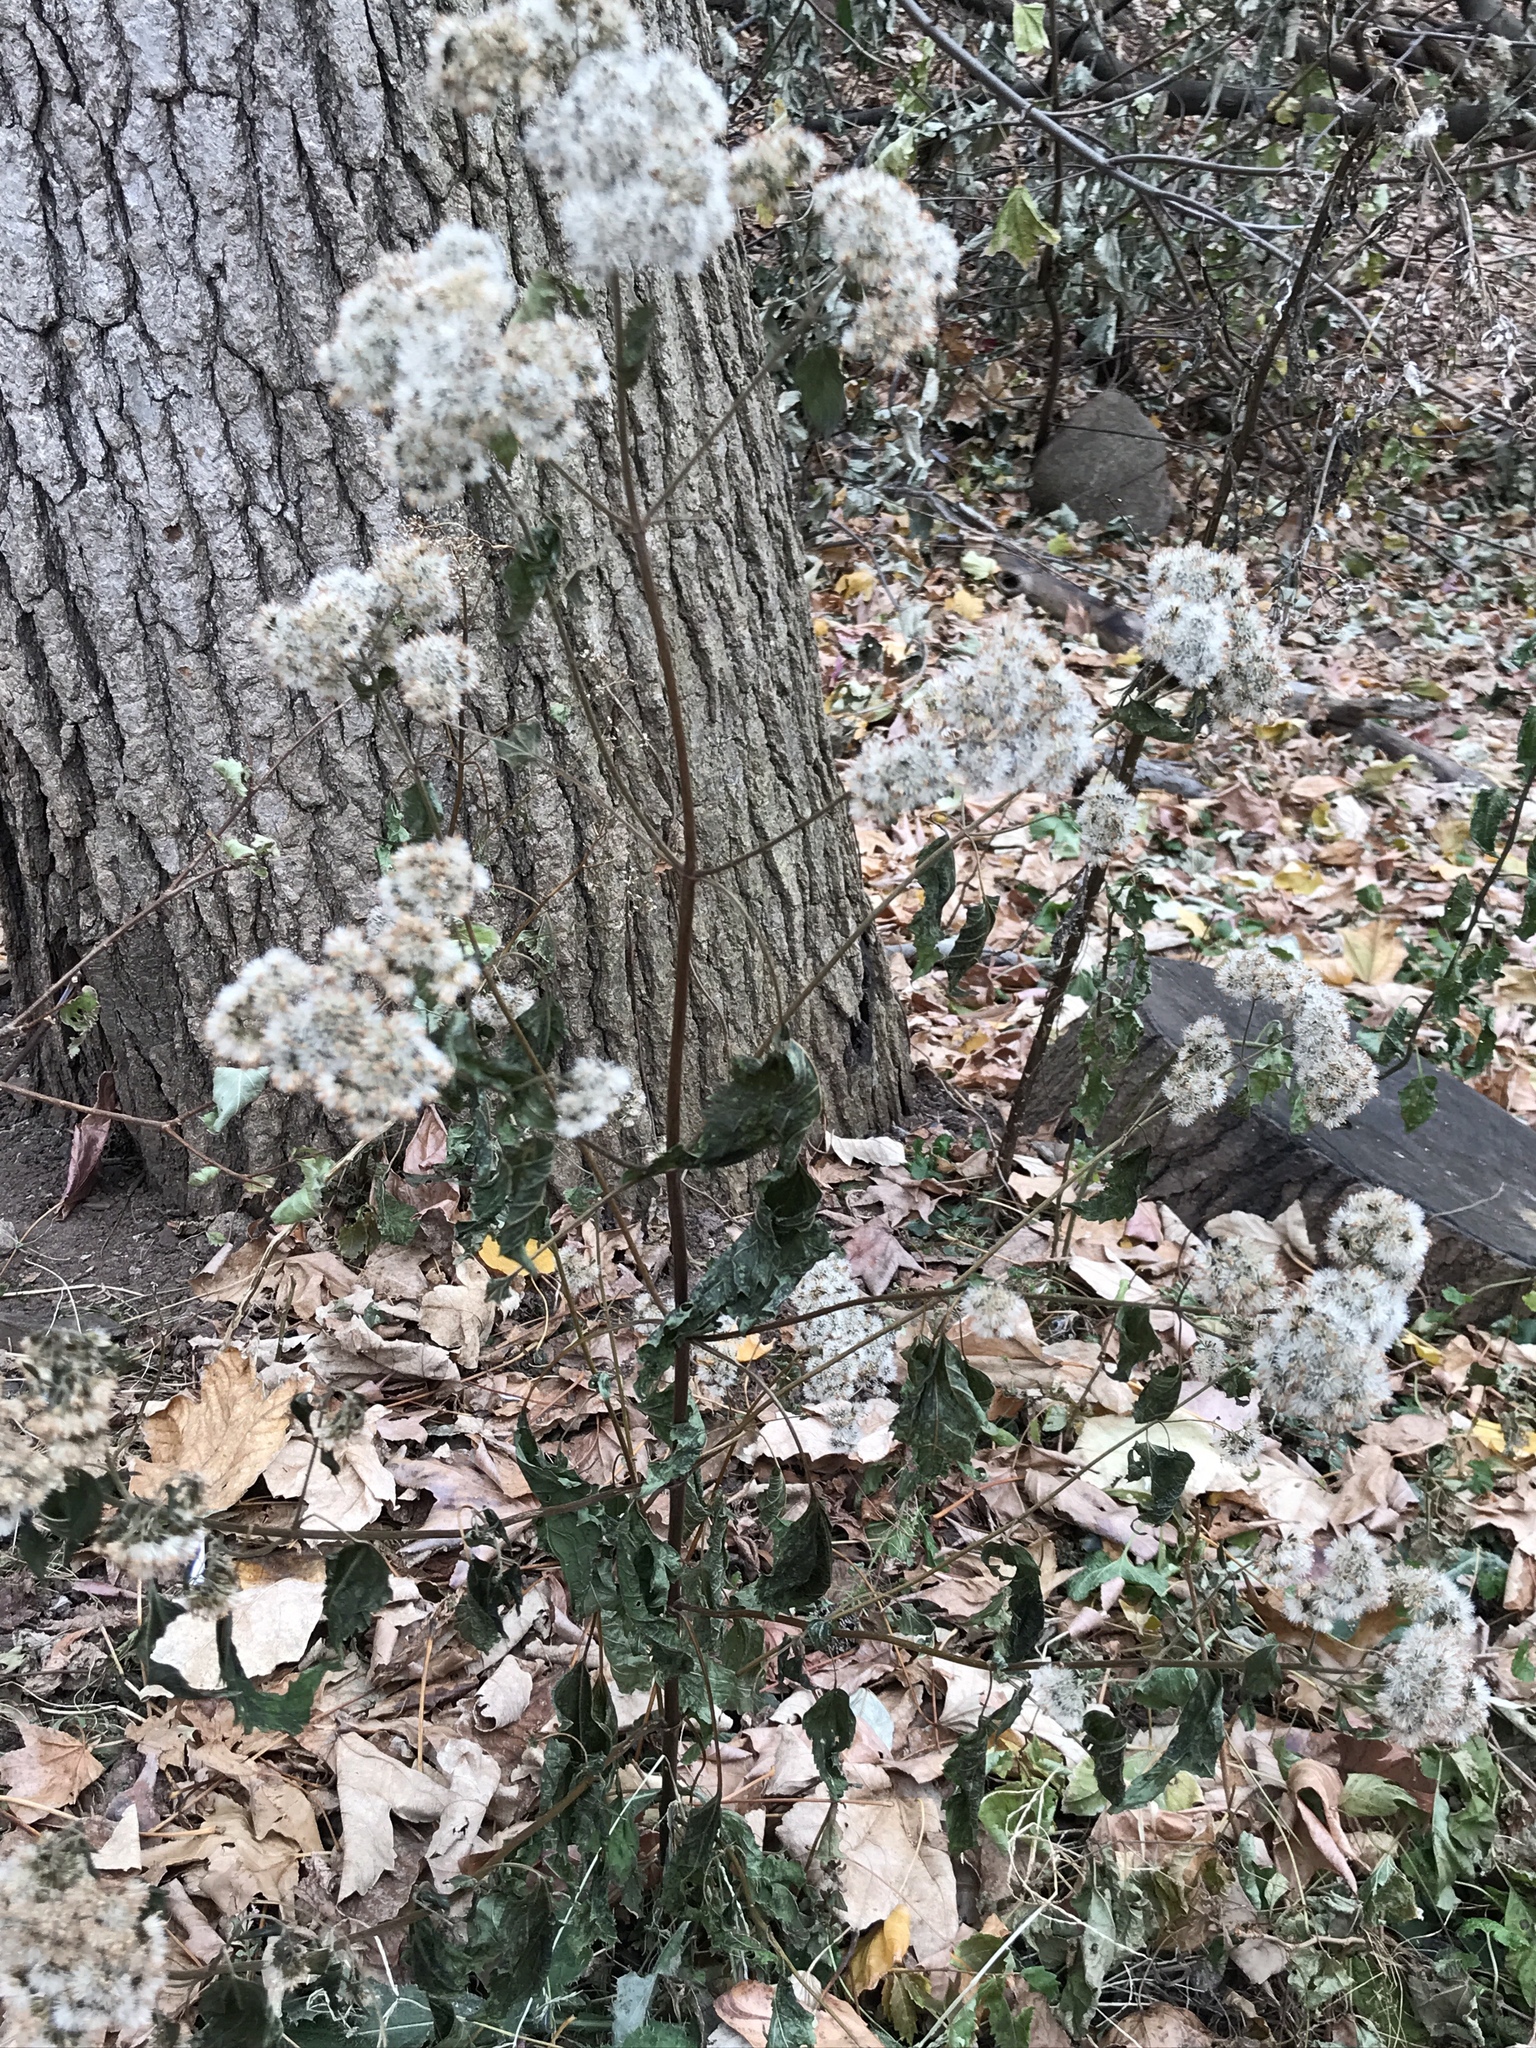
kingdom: Plantae
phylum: Tracheophyta
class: Magnoliopsida
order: Asterales
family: Asteraceae
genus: Ageratina
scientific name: Ageratina altissima
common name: White snakeroot
